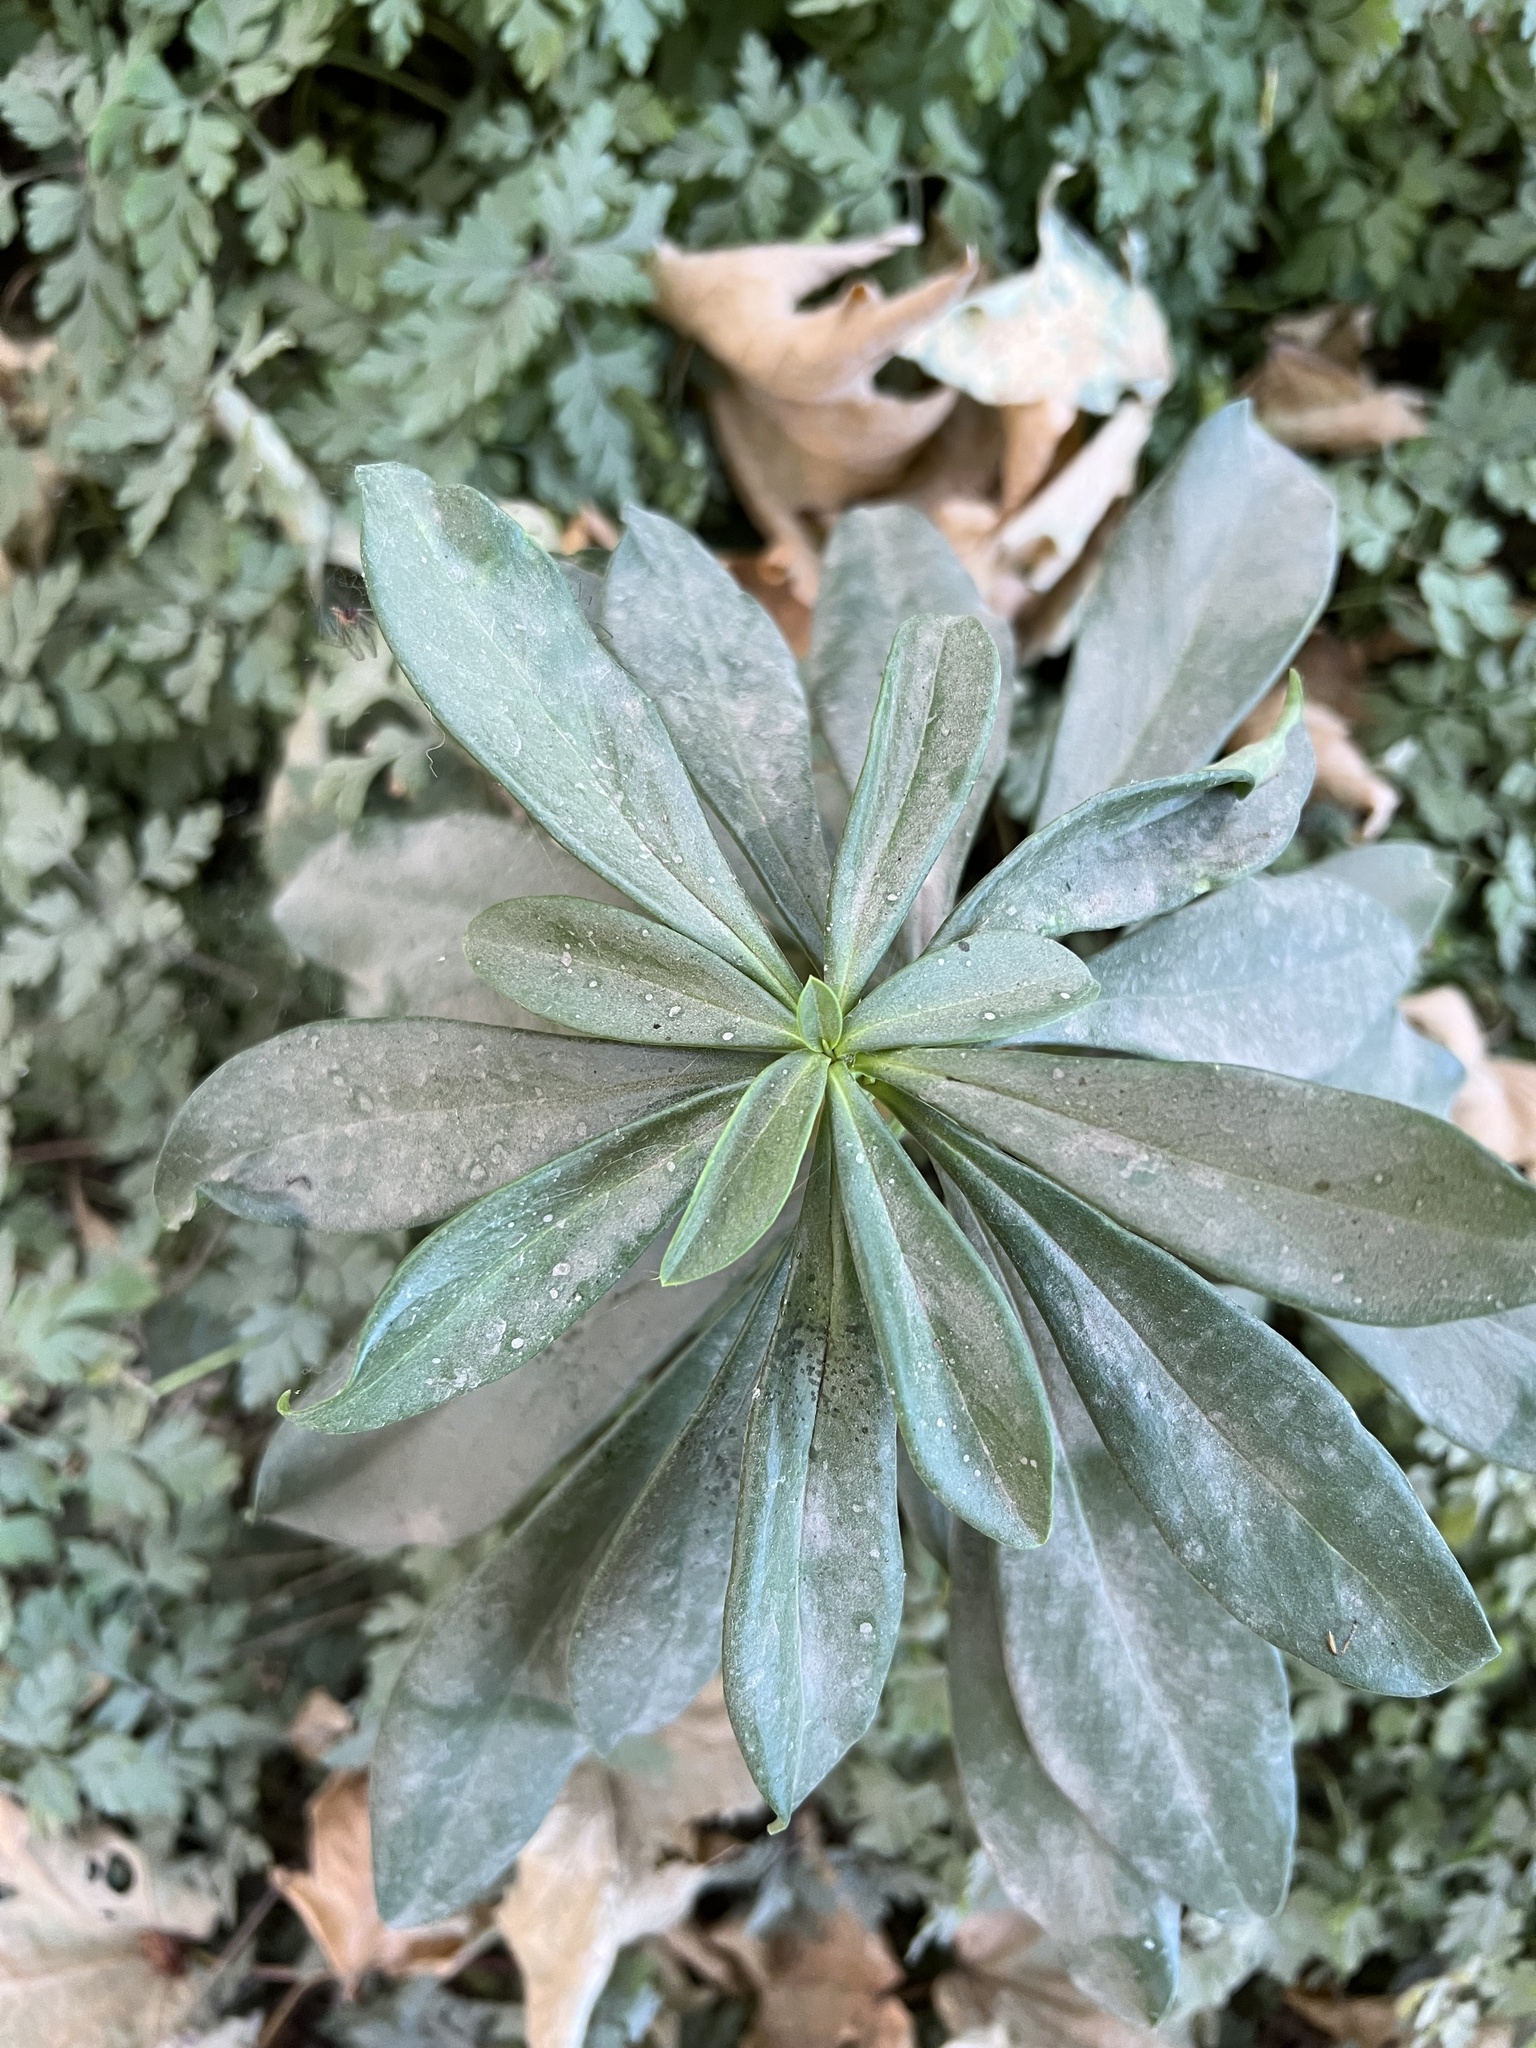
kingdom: Plantae
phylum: Tracheophyta
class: Magnoliopsida
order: Malvales
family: Thymelaeaceae
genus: Daphne
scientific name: Daphne laureola
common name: Spurge-laurel
